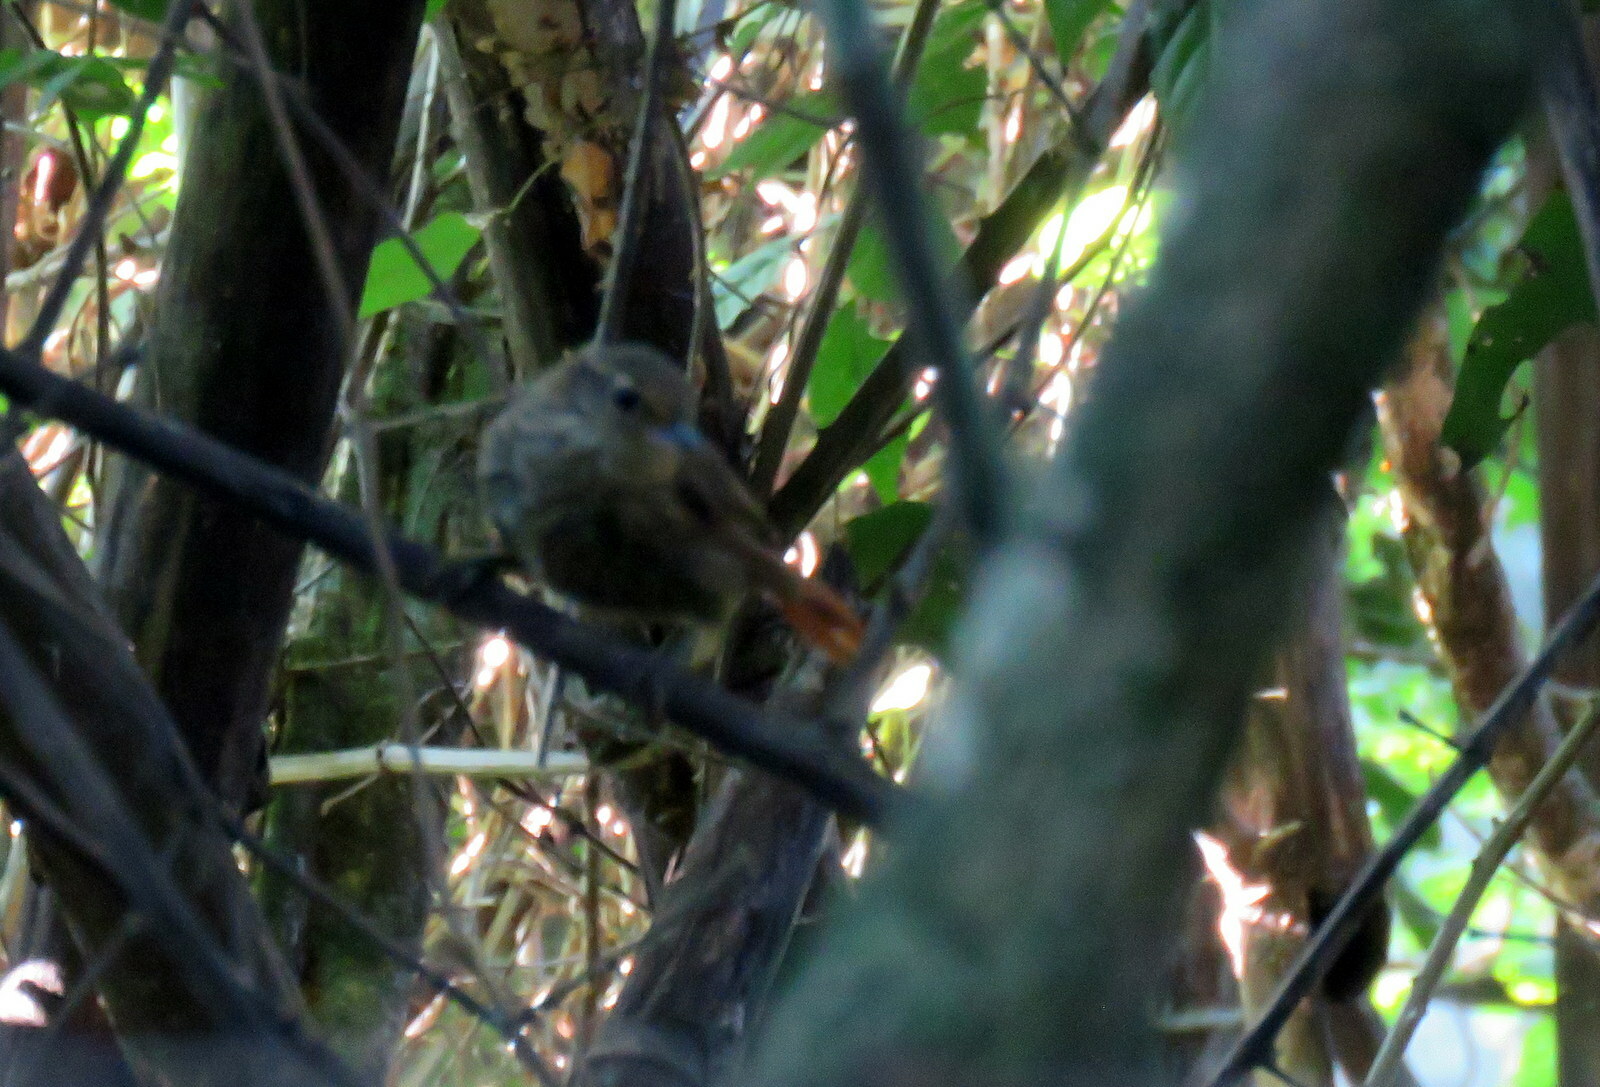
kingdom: Animalia
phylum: Chordata
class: Aves
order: Passeriformes
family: Furnariidae
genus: Syndactyla
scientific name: Syndactyla rufosuperciliata
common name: Buff-browed foliage-gleaner
